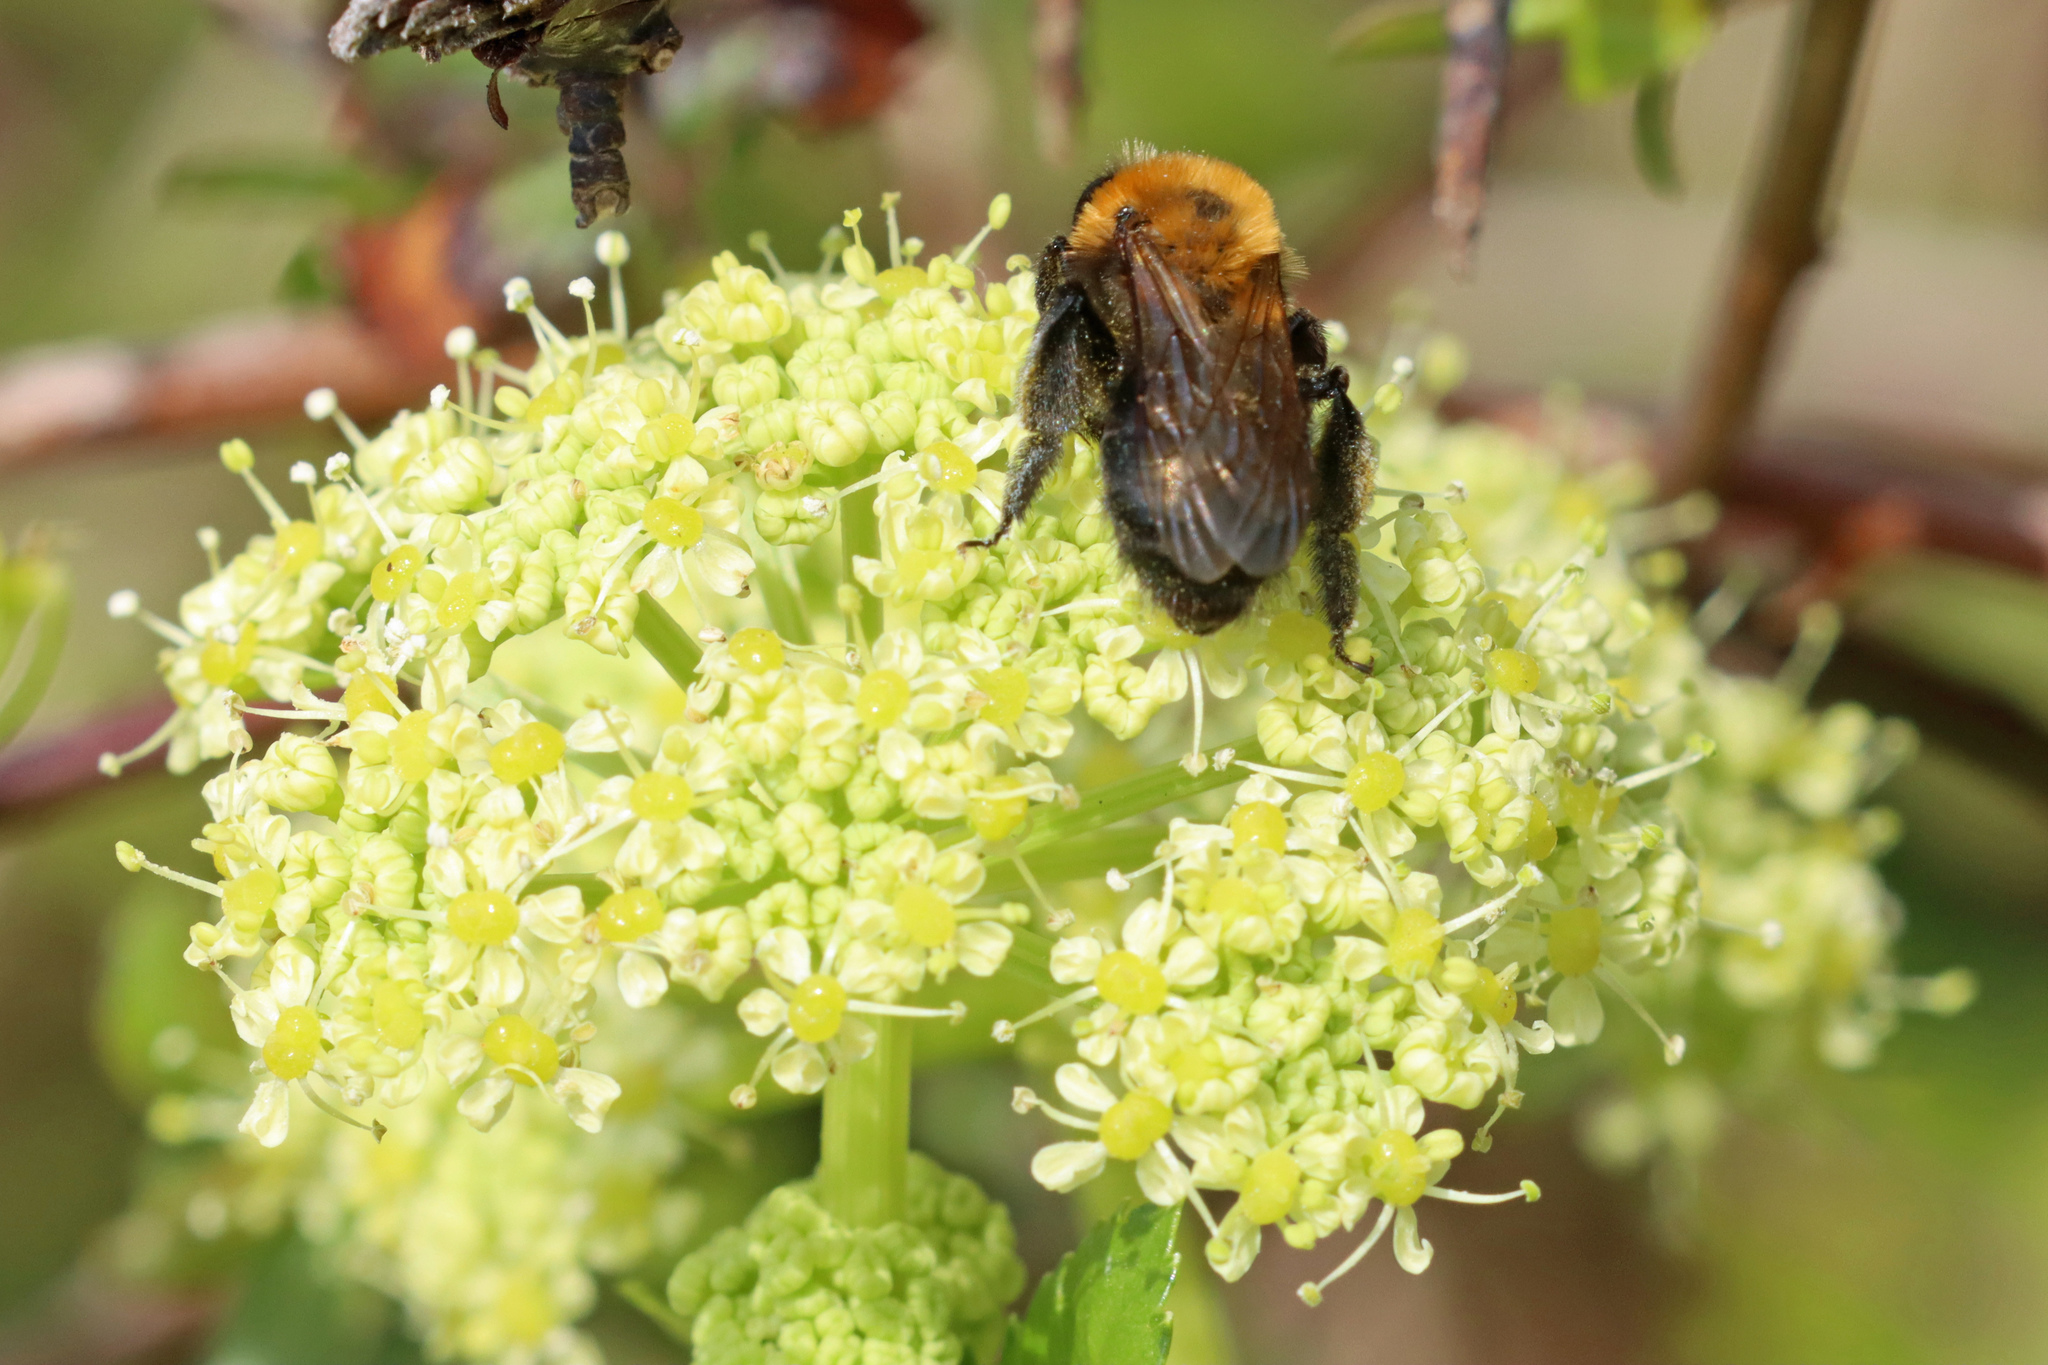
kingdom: Plantae
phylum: Tracheophyta
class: Magnoliopsida
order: Apiales
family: Apiaceae
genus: Smyrnium
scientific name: Smyrnium olusatrum
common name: Alexanders
